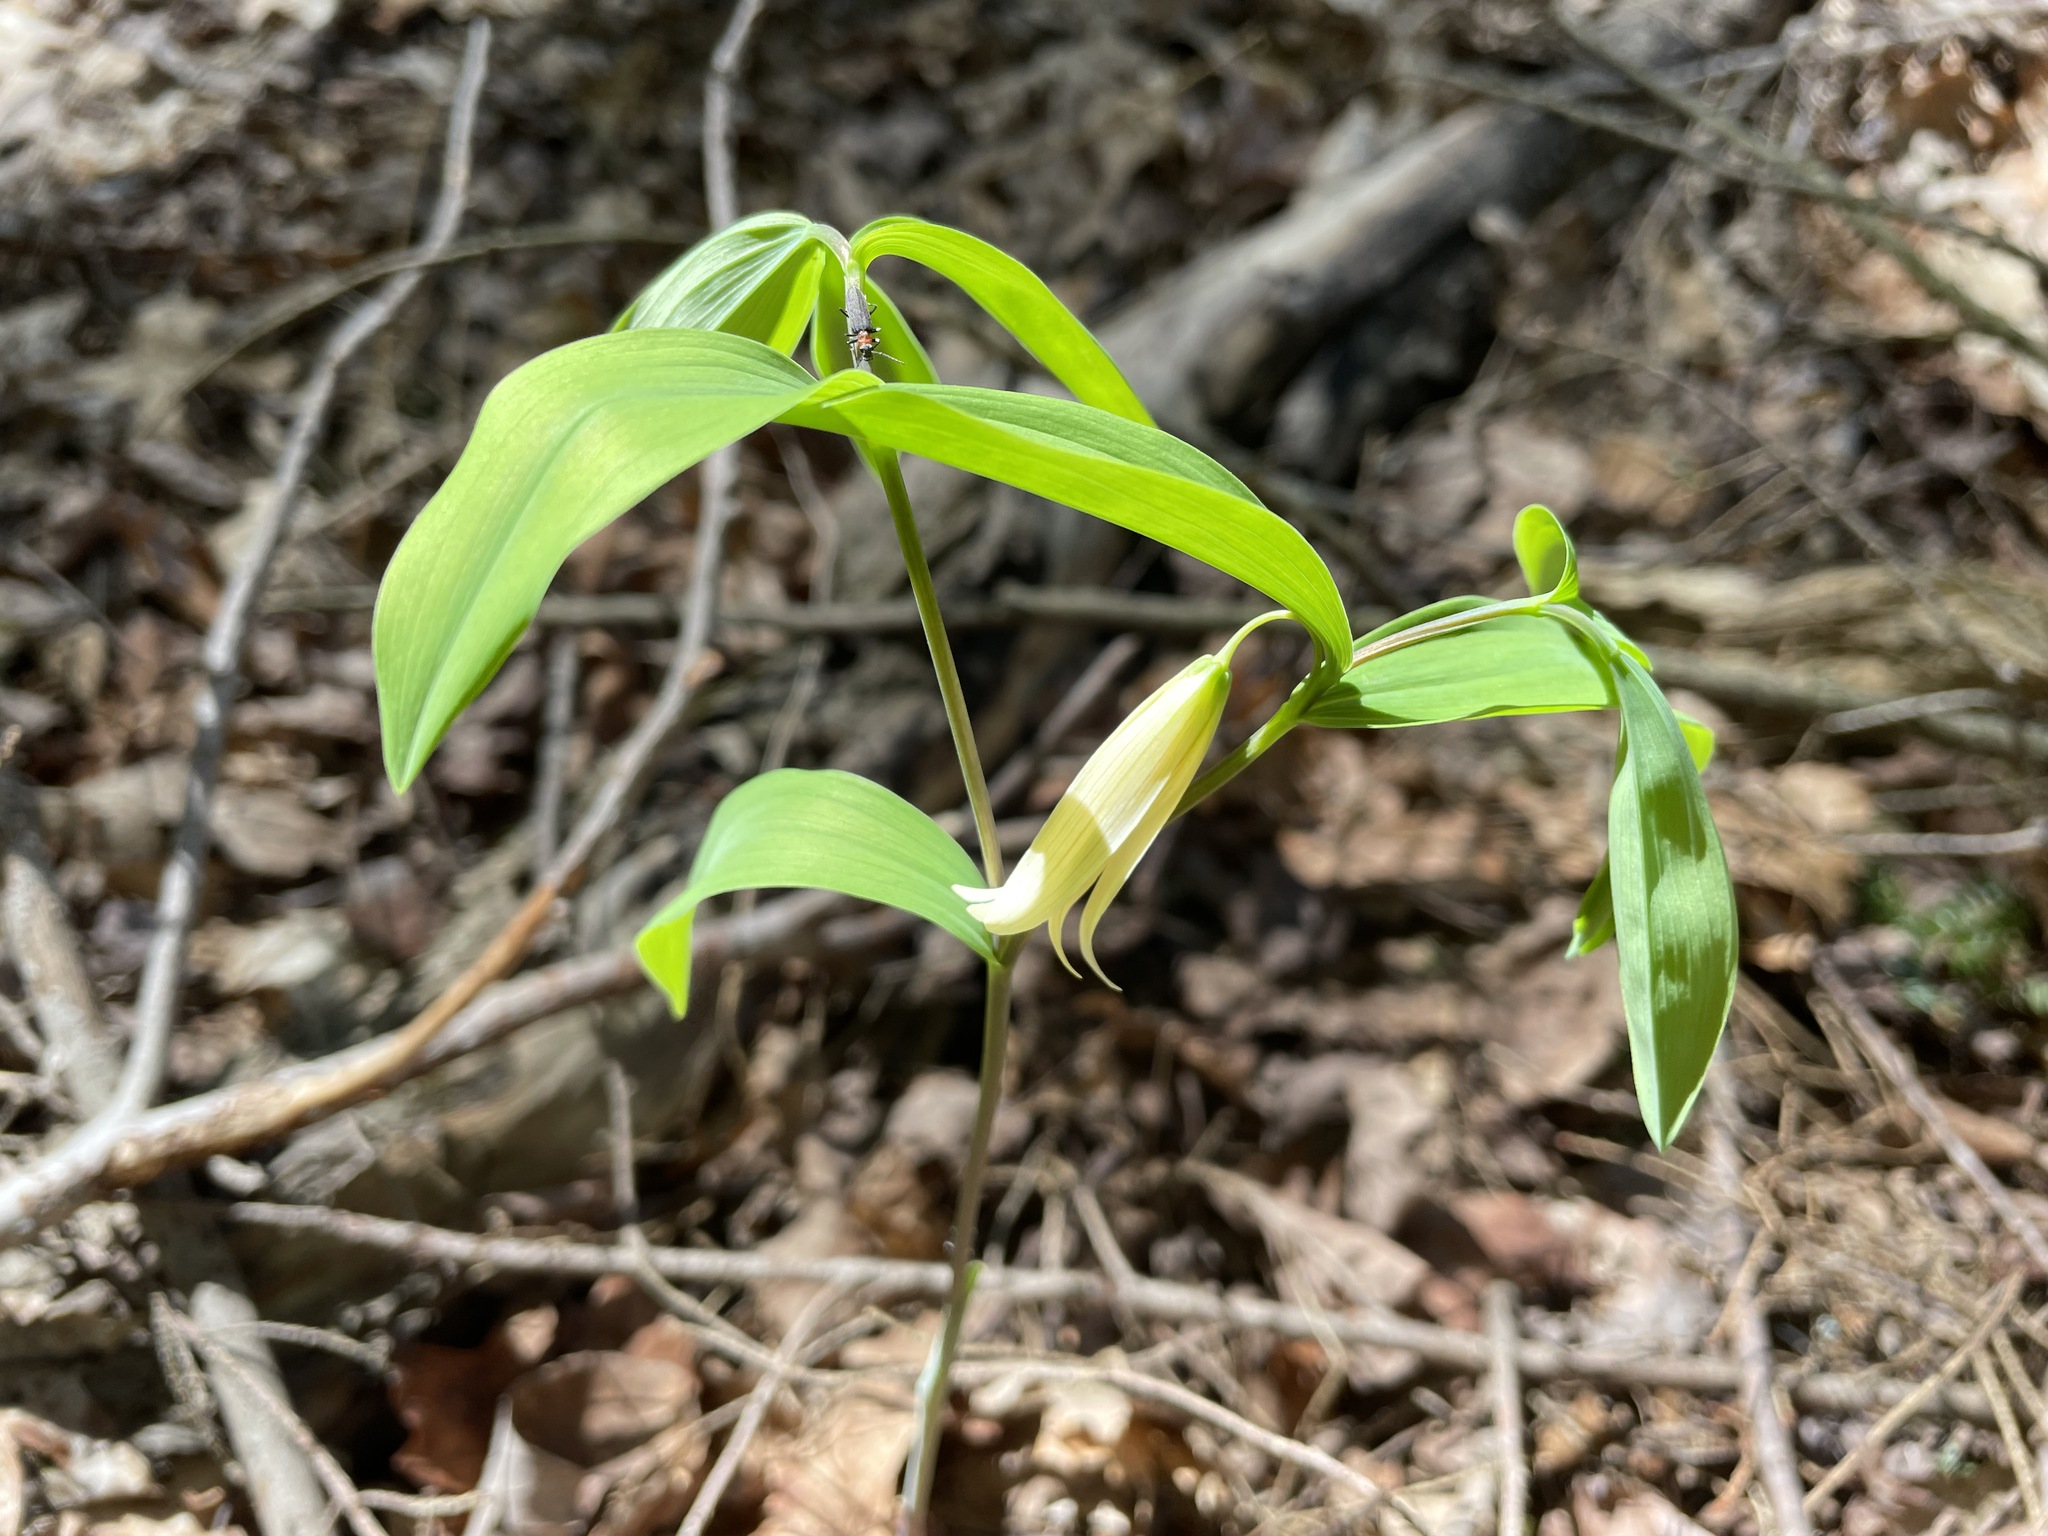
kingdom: Plantae
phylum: Tracheophyta
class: Liliopsida
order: Liliales
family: Colchicaceae
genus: Uvularia
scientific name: Uvularia sessilifolia
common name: Straw-lily
